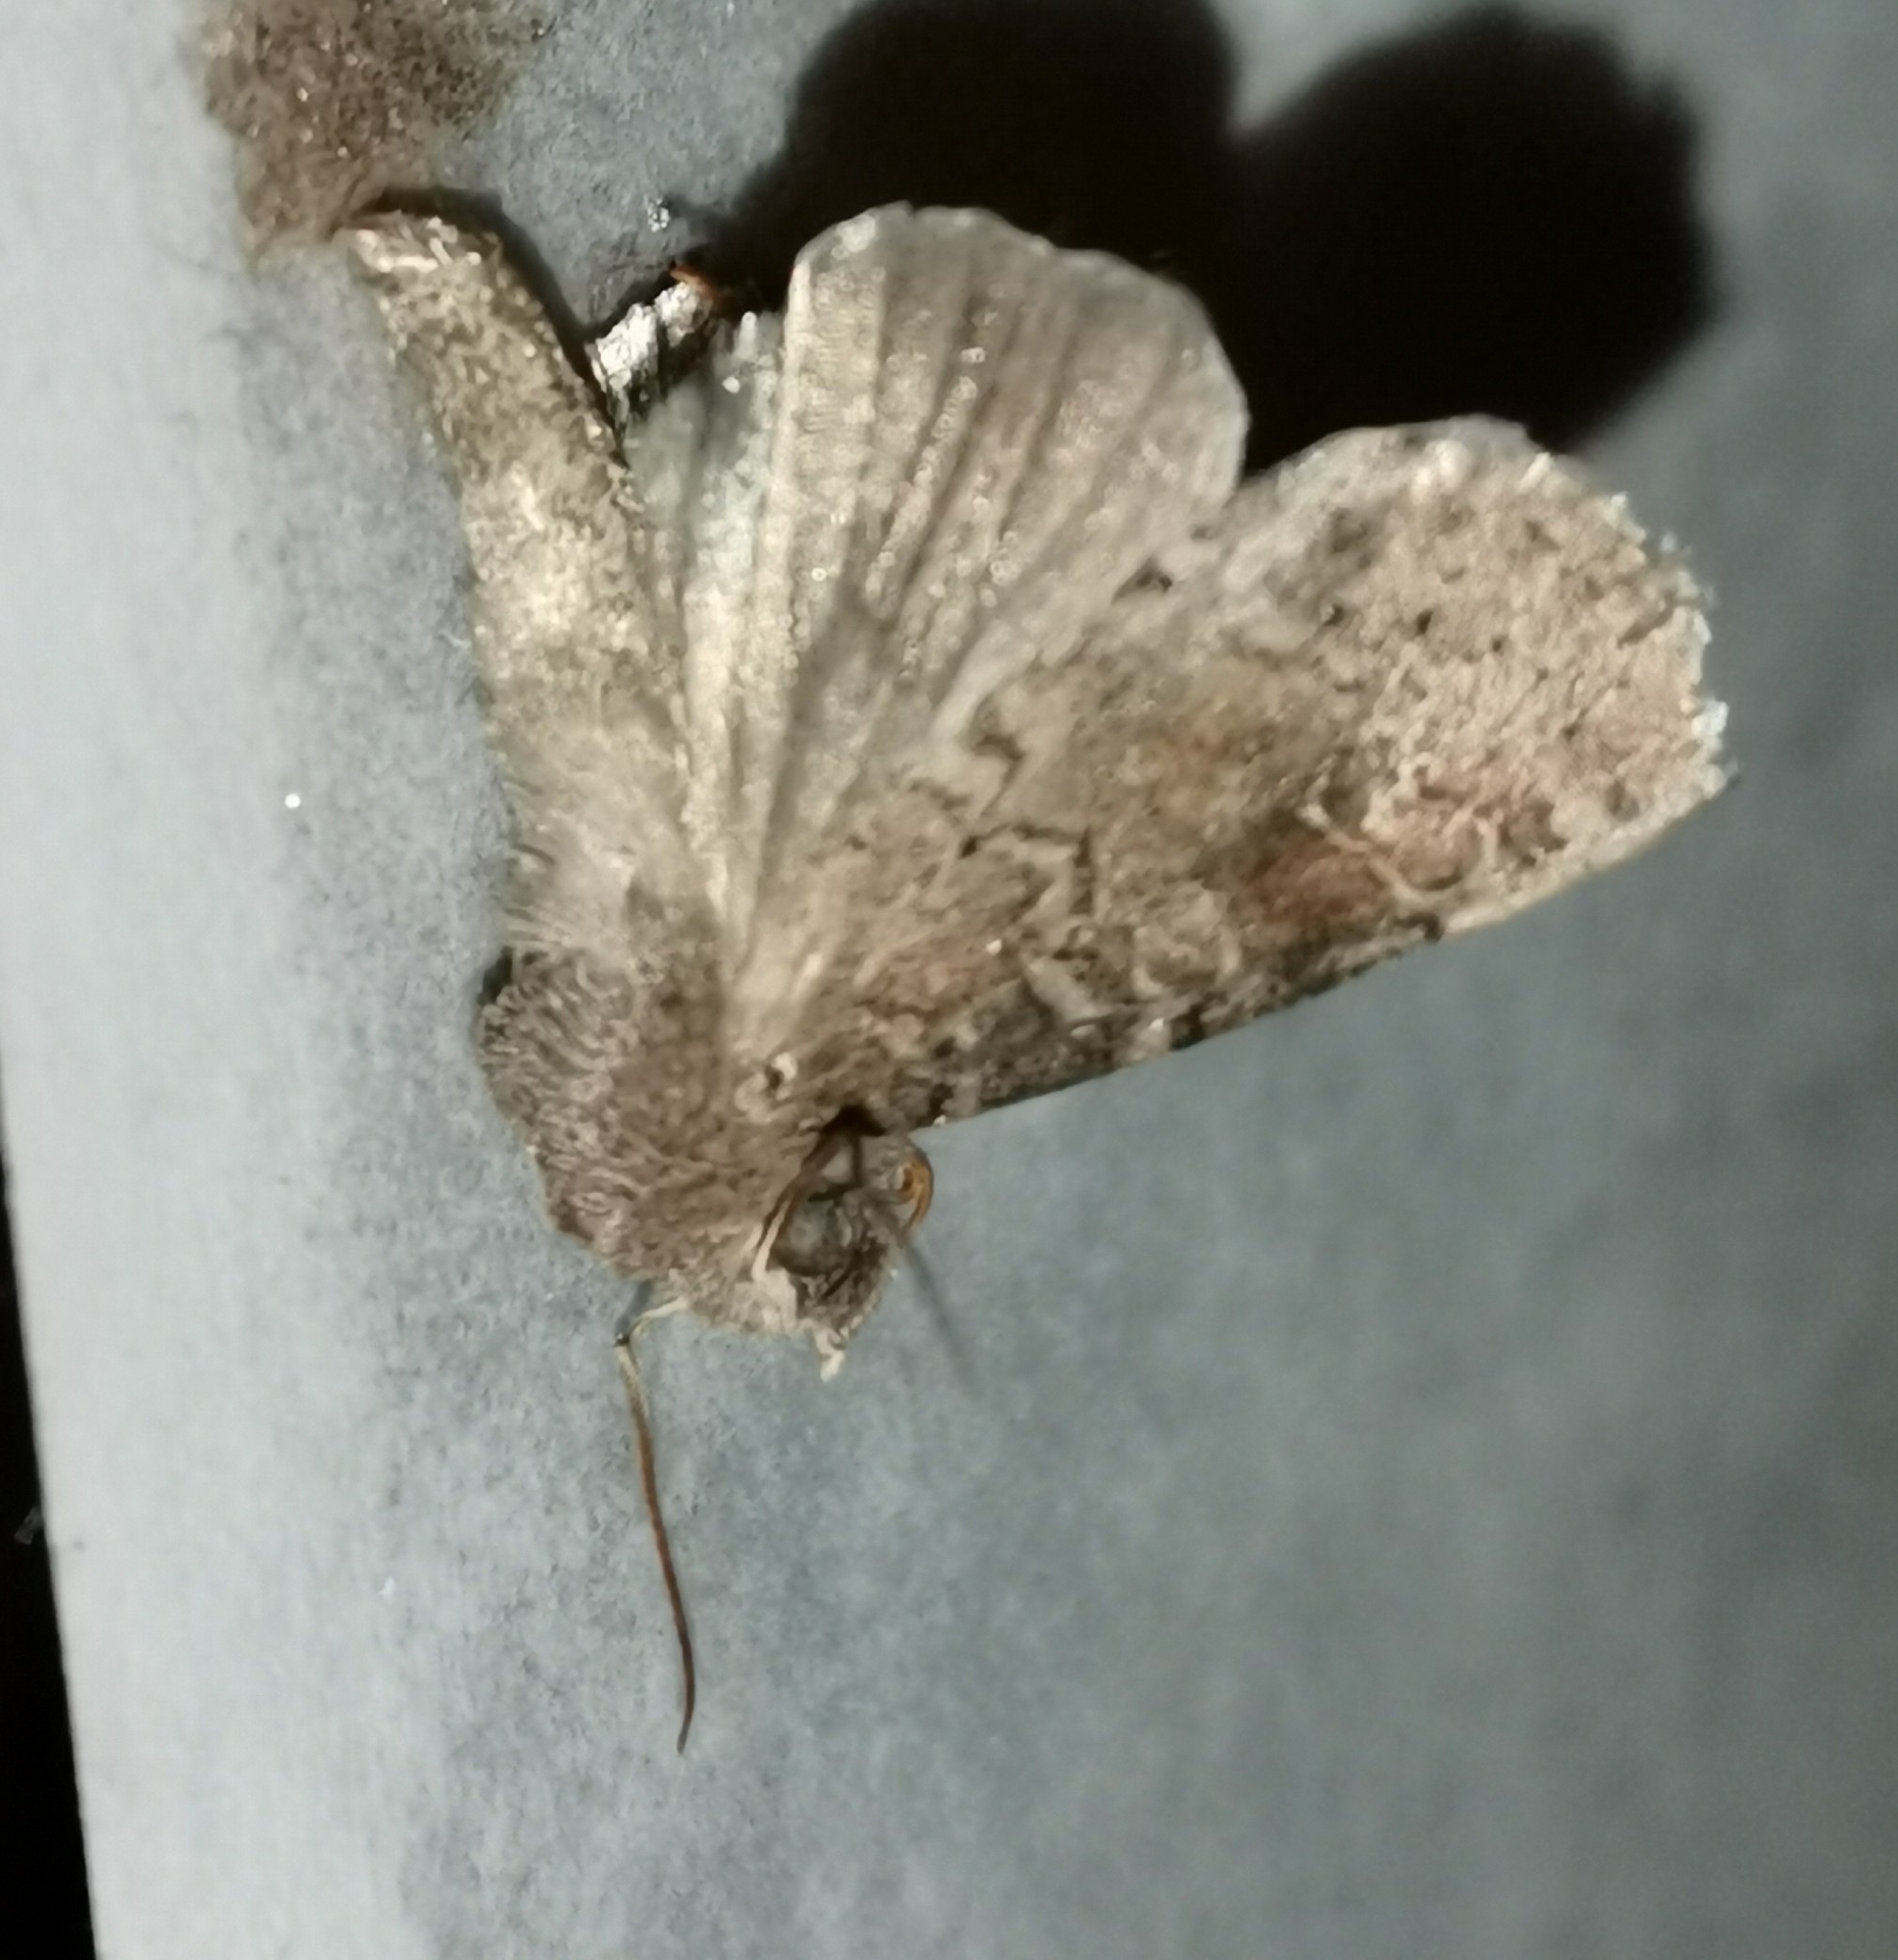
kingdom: Animalia
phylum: Arthropoda
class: Insecta
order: Lepidoptera
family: Noctuidae
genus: Parastichtis
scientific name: Parastichtis suspecta
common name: Suspected
